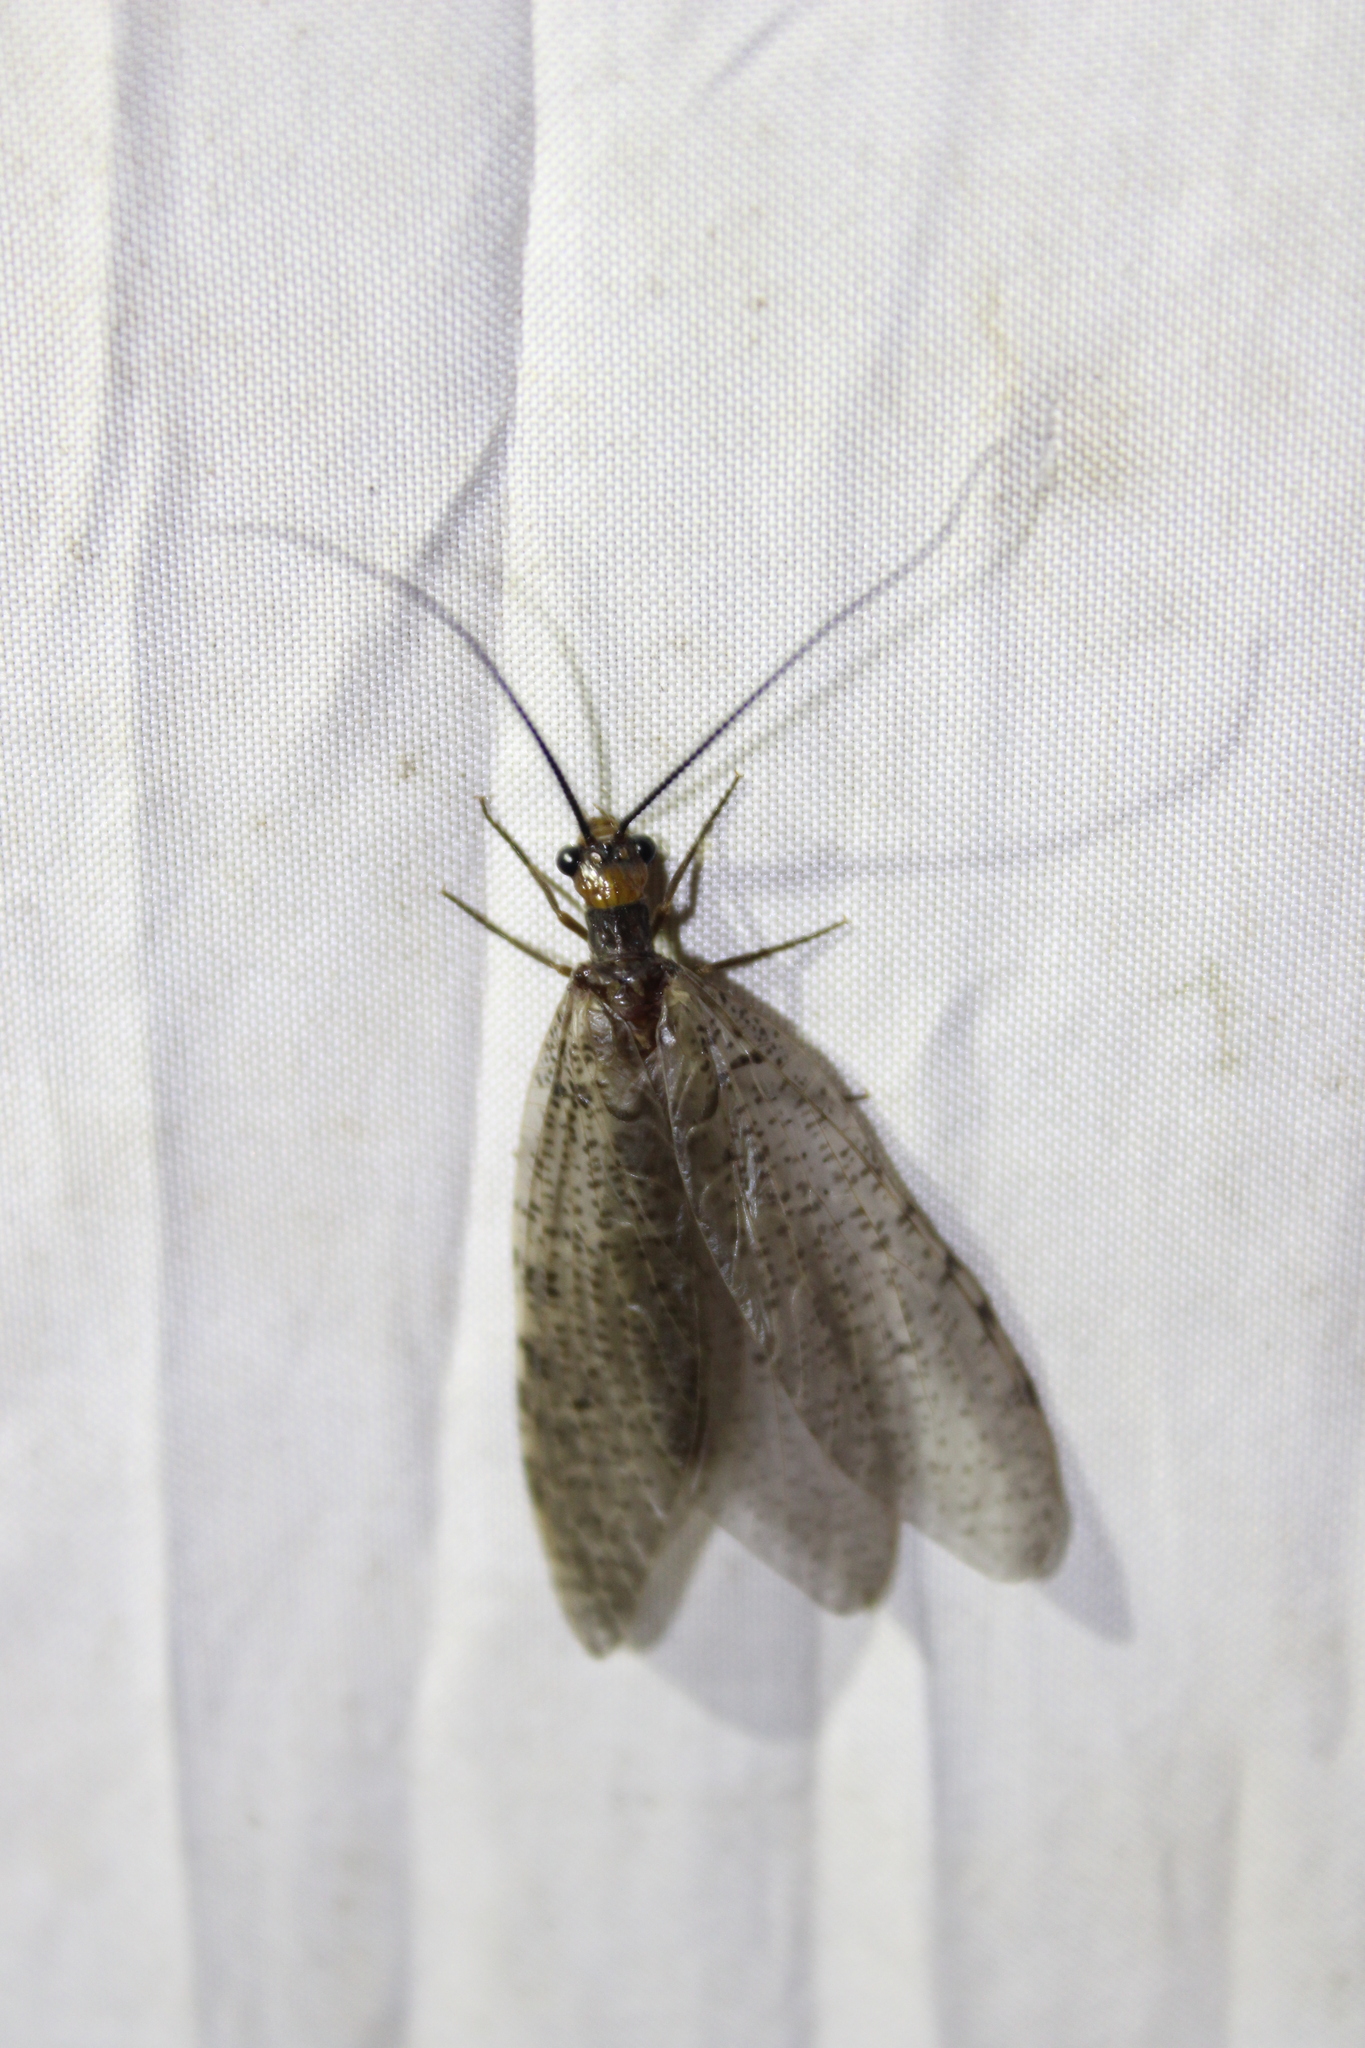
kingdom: Animalia
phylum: Arthropoda
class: Insecta
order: Megaloptera
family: Corydalidae
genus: Neohermes
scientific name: Neohermes concolor
